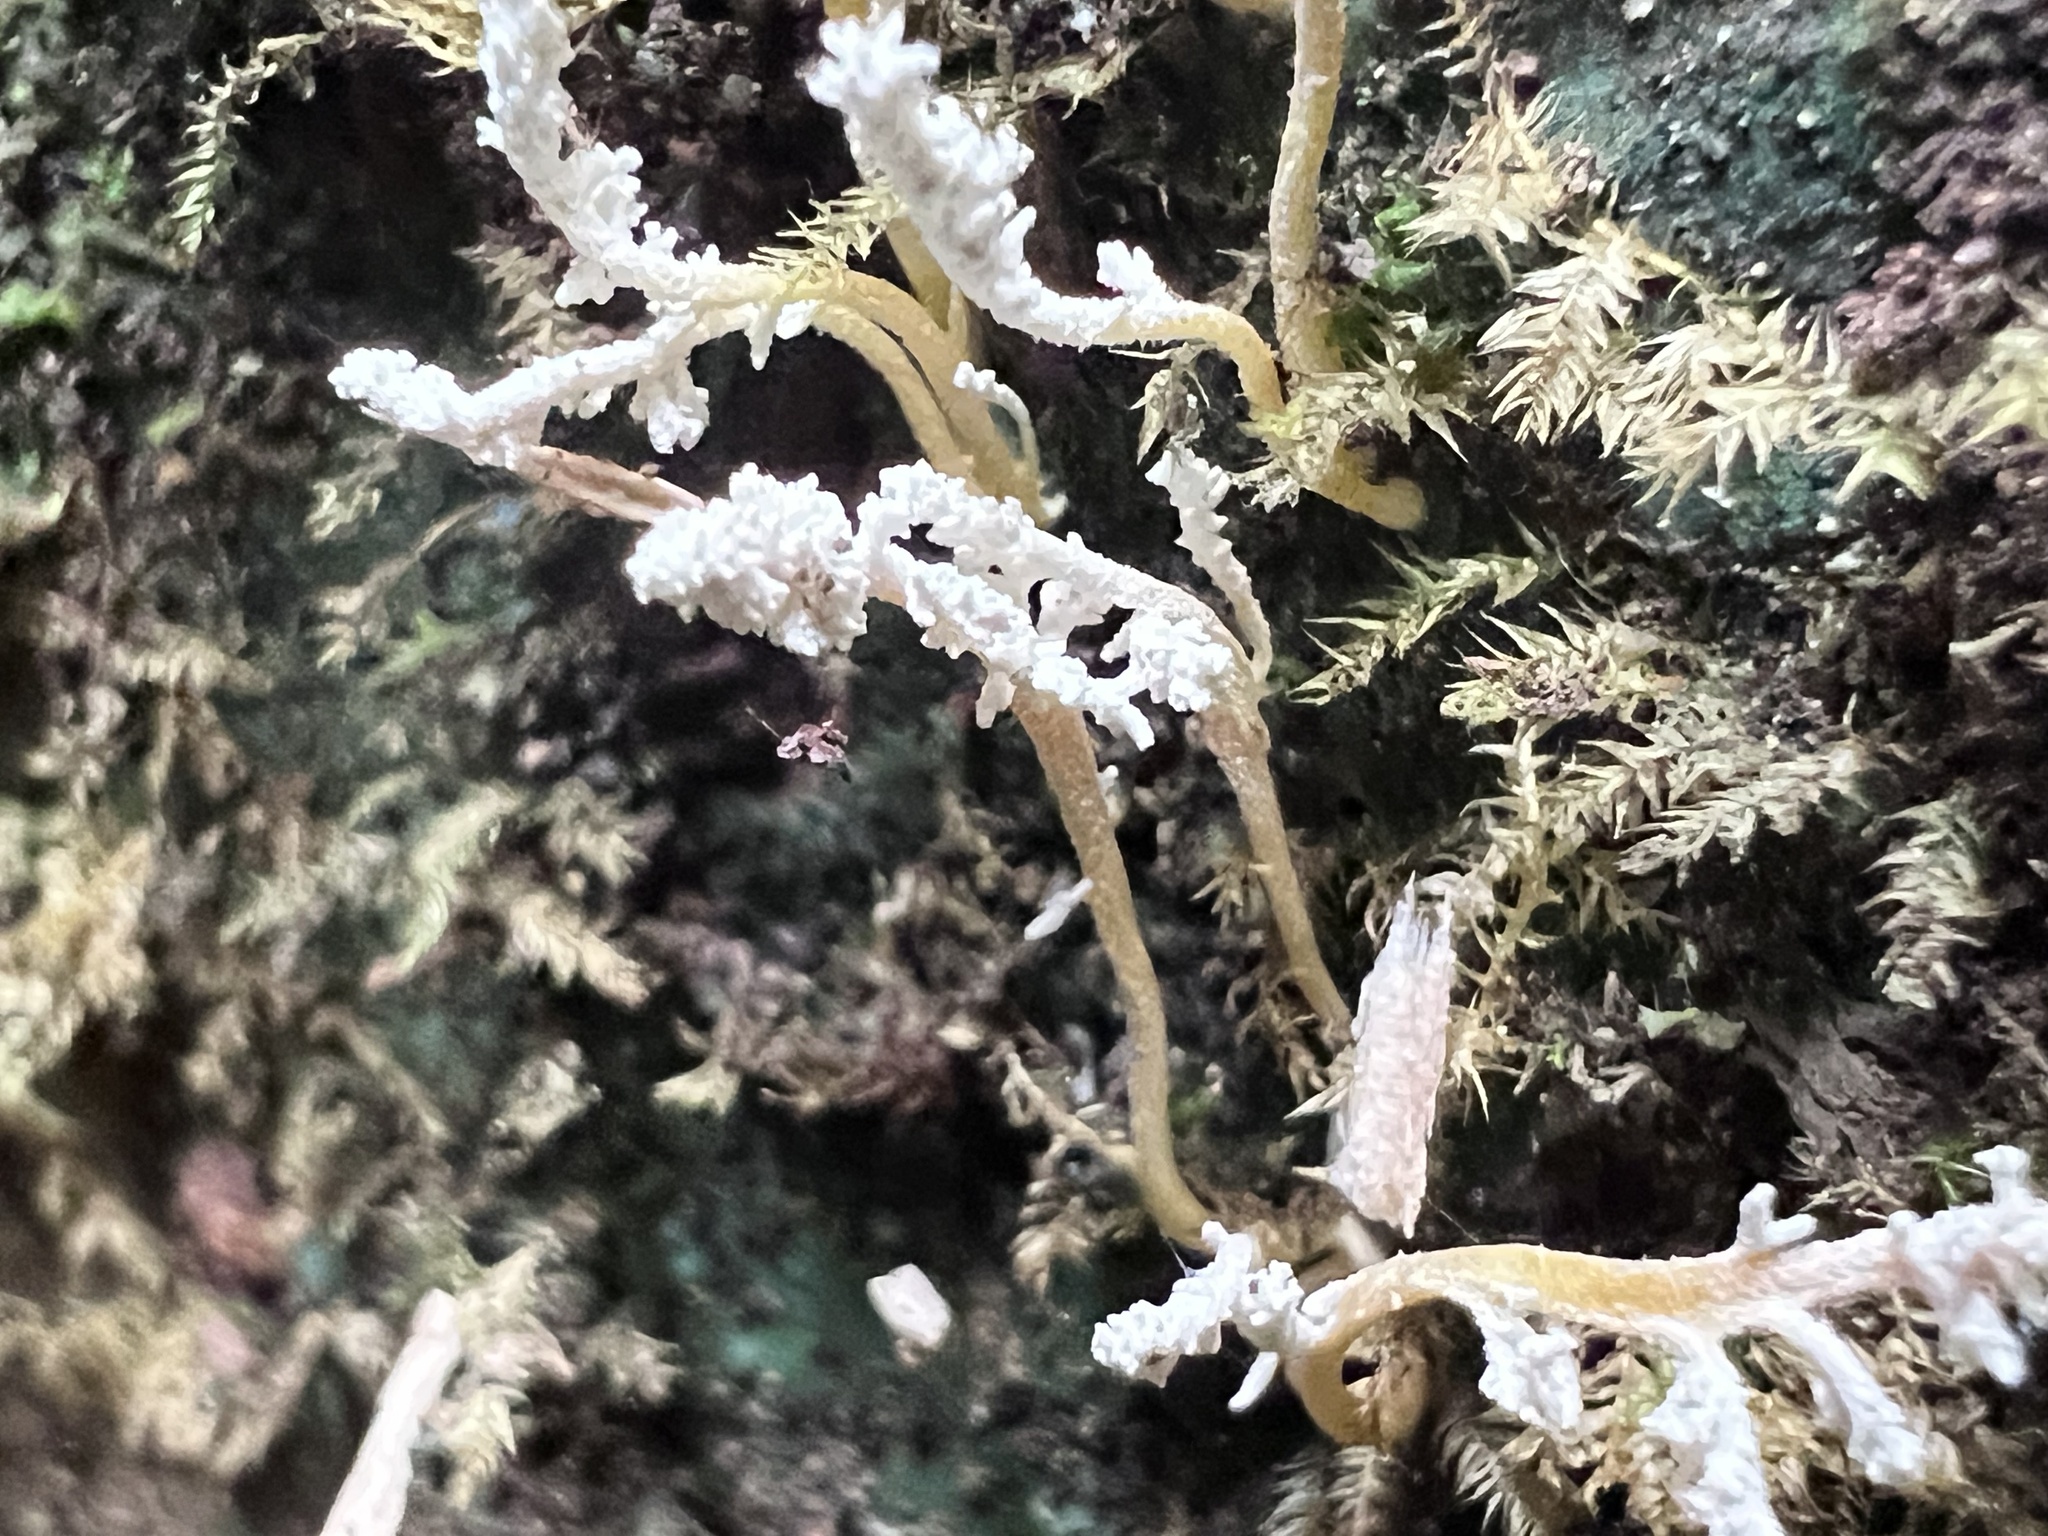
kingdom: Fungi
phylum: Ascomycota
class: Sordariomycetes
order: Hypocreales
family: Cordycipitaceae
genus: Cordyceps
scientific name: Cordyceps tenuipes
